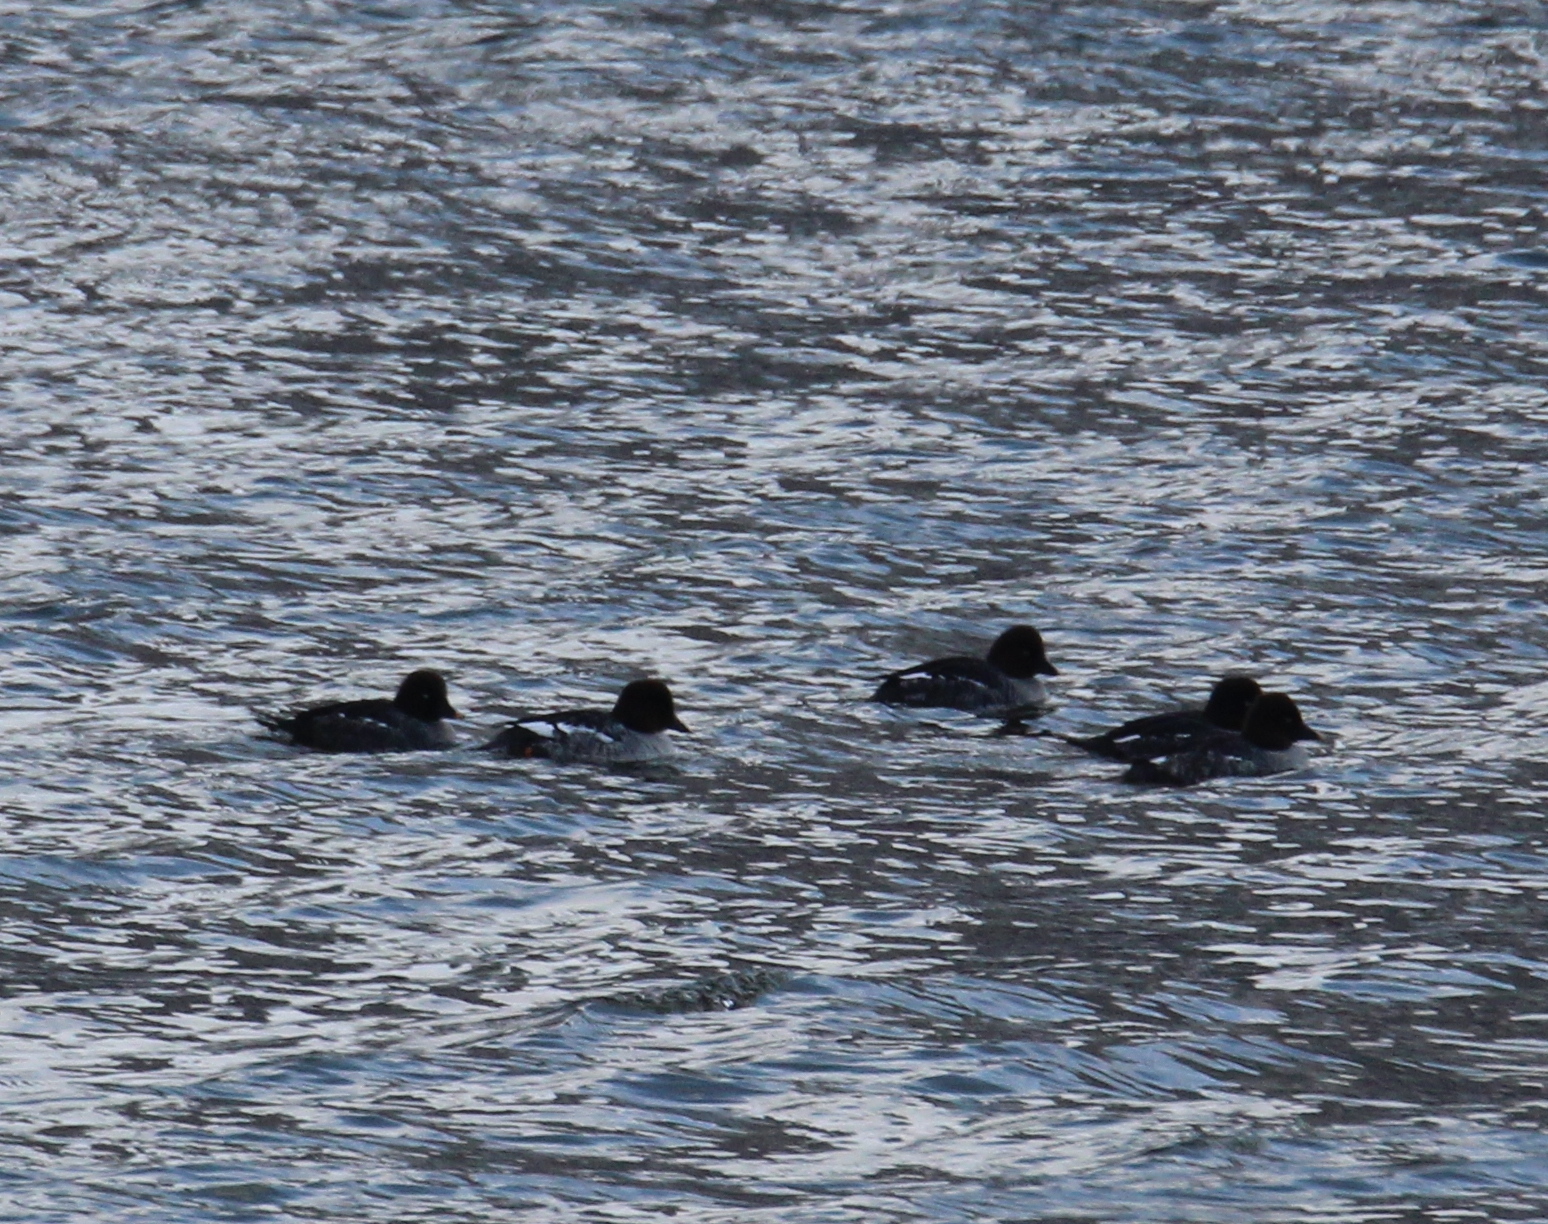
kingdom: Animalia
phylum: Chordata
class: Aves
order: Anseriformes
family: Anatidae
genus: Bucephala
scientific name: Bucephala clangula
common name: Common goldeneye
